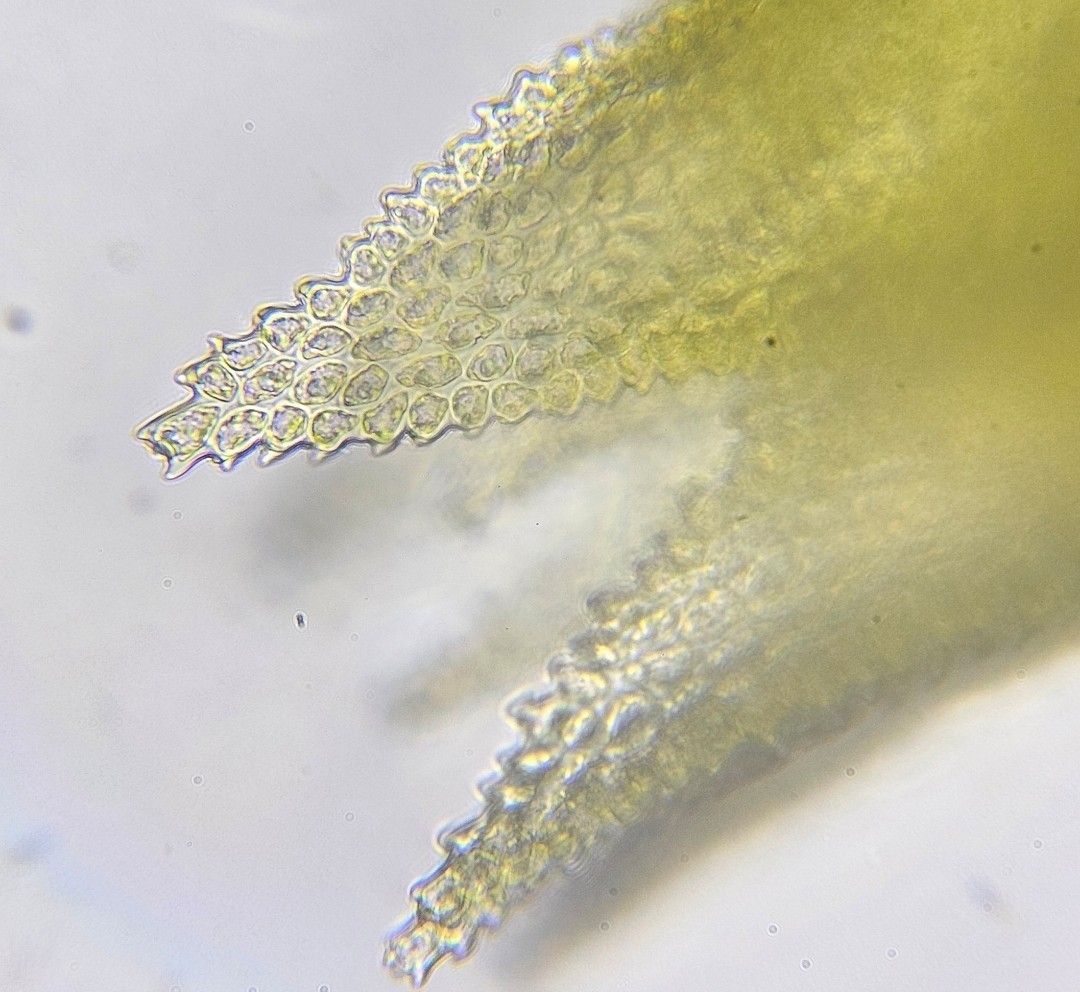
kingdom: Plantae
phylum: Bryophyta
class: Bryopsida
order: Hypnales
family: Thuidiaceae
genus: Thuidium
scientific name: Thuidium delicatulum
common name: Delicate fern moss
